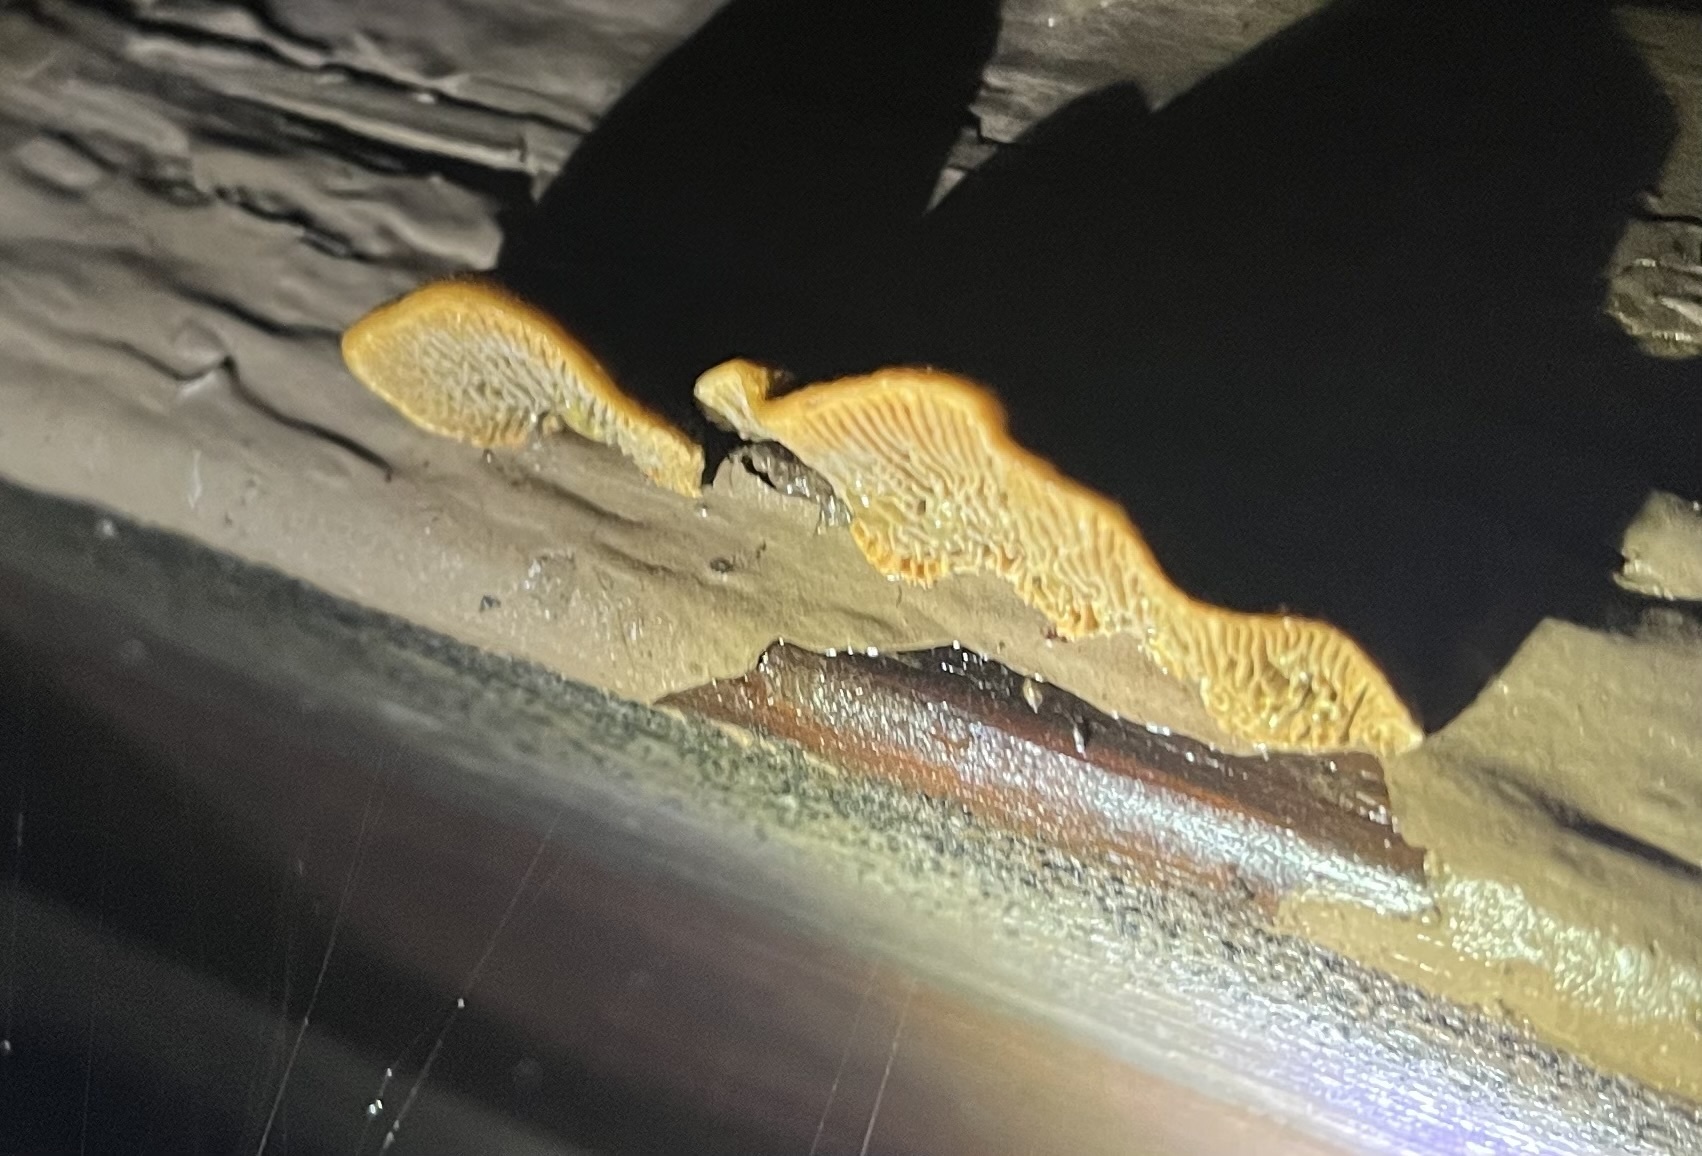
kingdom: Fungi
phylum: Basidiomycota
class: Agaricomycetes
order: Gloeophyllales
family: Gloeophyllaceae
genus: Gloeophyllum
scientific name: Gloeophyllum sepiarium
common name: Conifer mazegill
